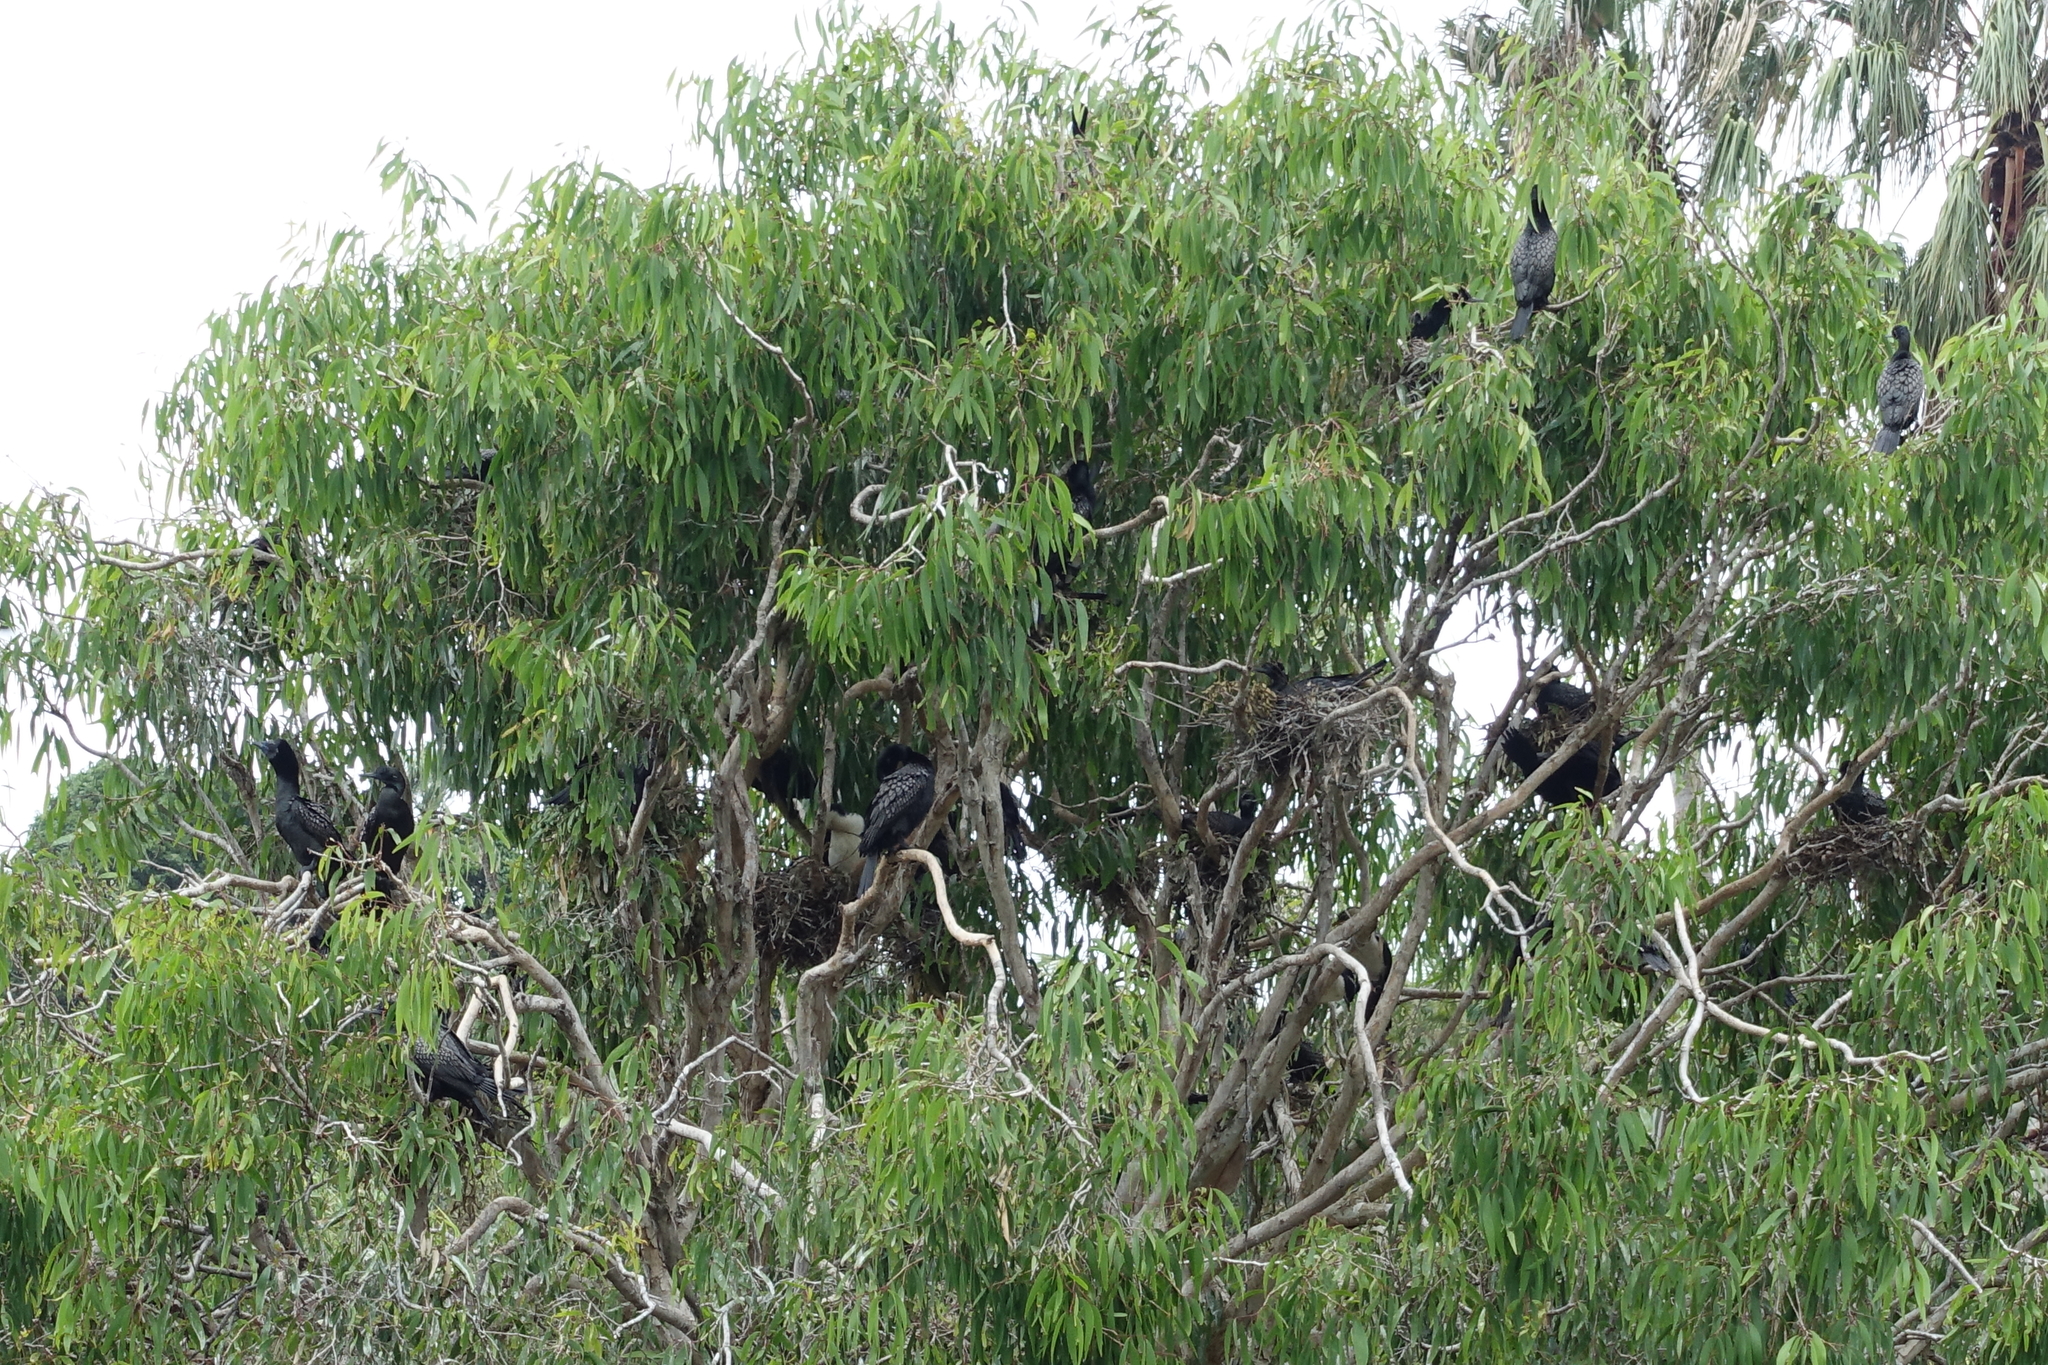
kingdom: Animalia
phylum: Chordata
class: Aves
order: Suliformes
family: Phalacrocoracidae
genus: Phalacrocorax
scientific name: Phalacrocorax sulcirostris
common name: Little black cormorant
